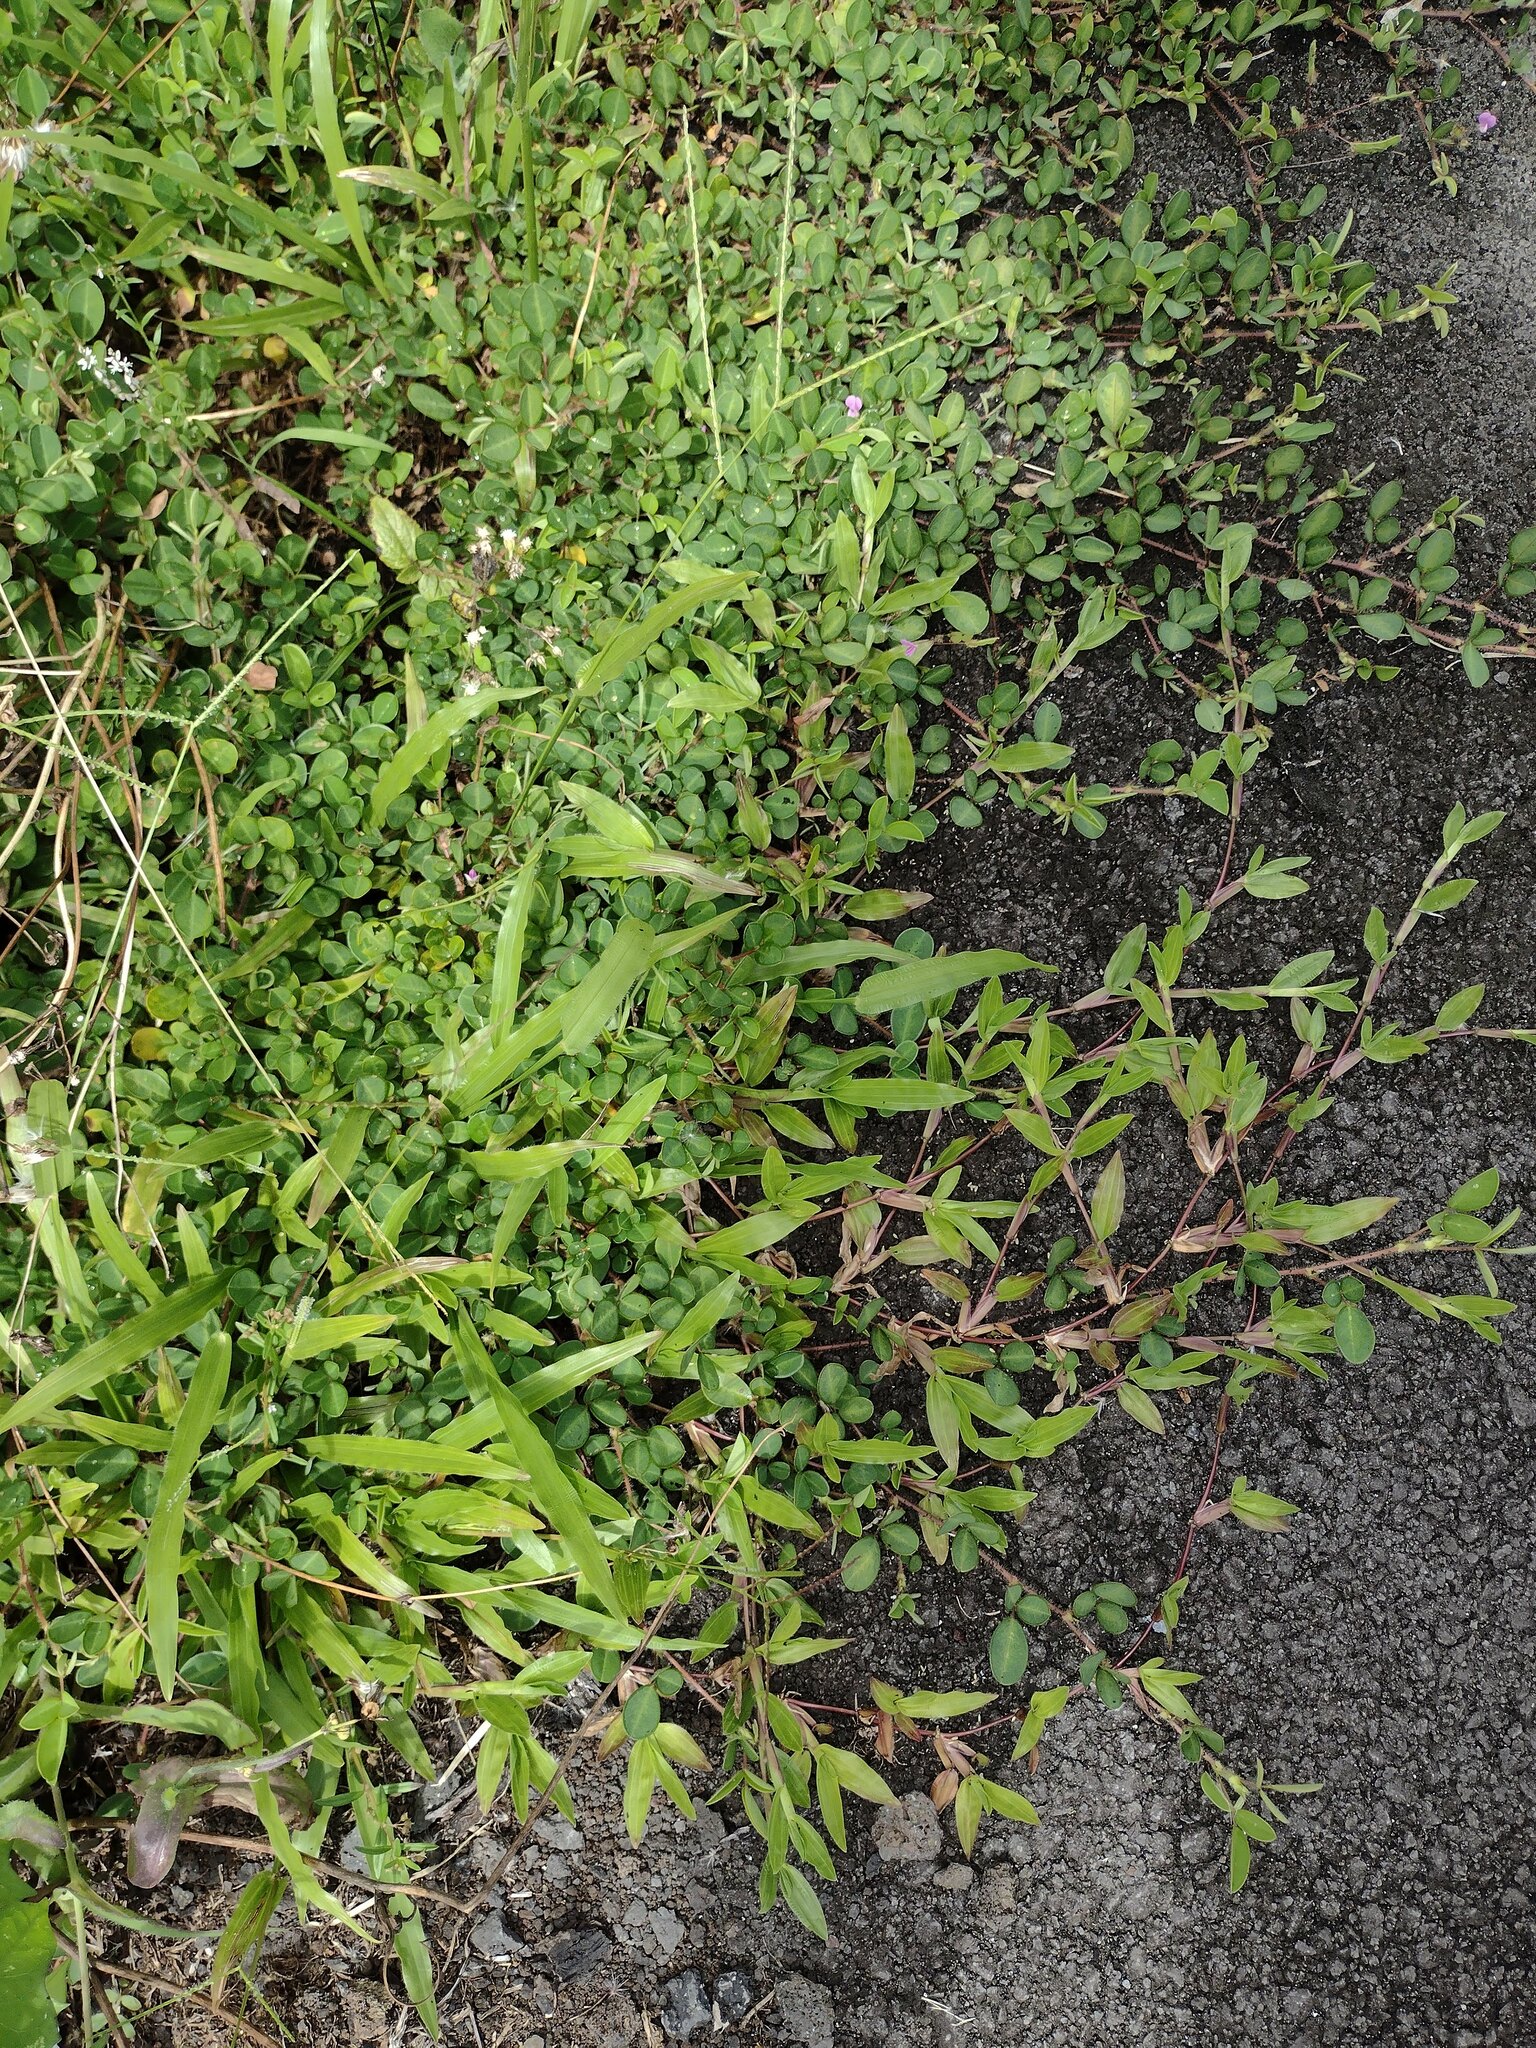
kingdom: Plantae
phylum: Tracheophyta
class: Magnoliopsida
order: Fabales
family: Fabaceae
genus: Grona
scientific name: Grona triflora
